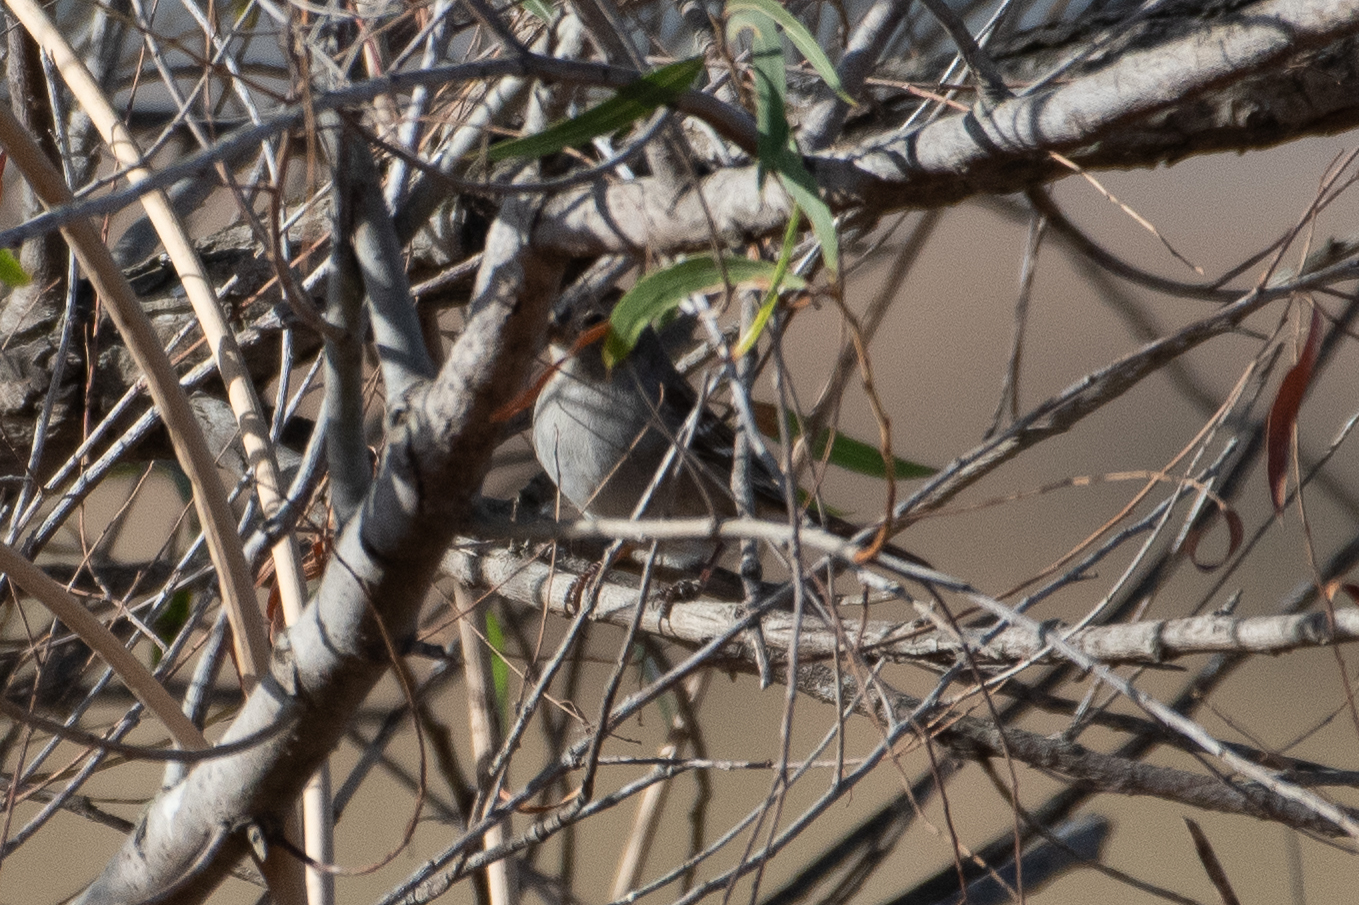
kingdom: Animalia
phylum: Chordata
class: Aves
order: Passeriformes
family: Passerellidae
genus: Zonotrichia
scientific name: Zonotrichia leucophrys
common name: White-crowned sparrow
